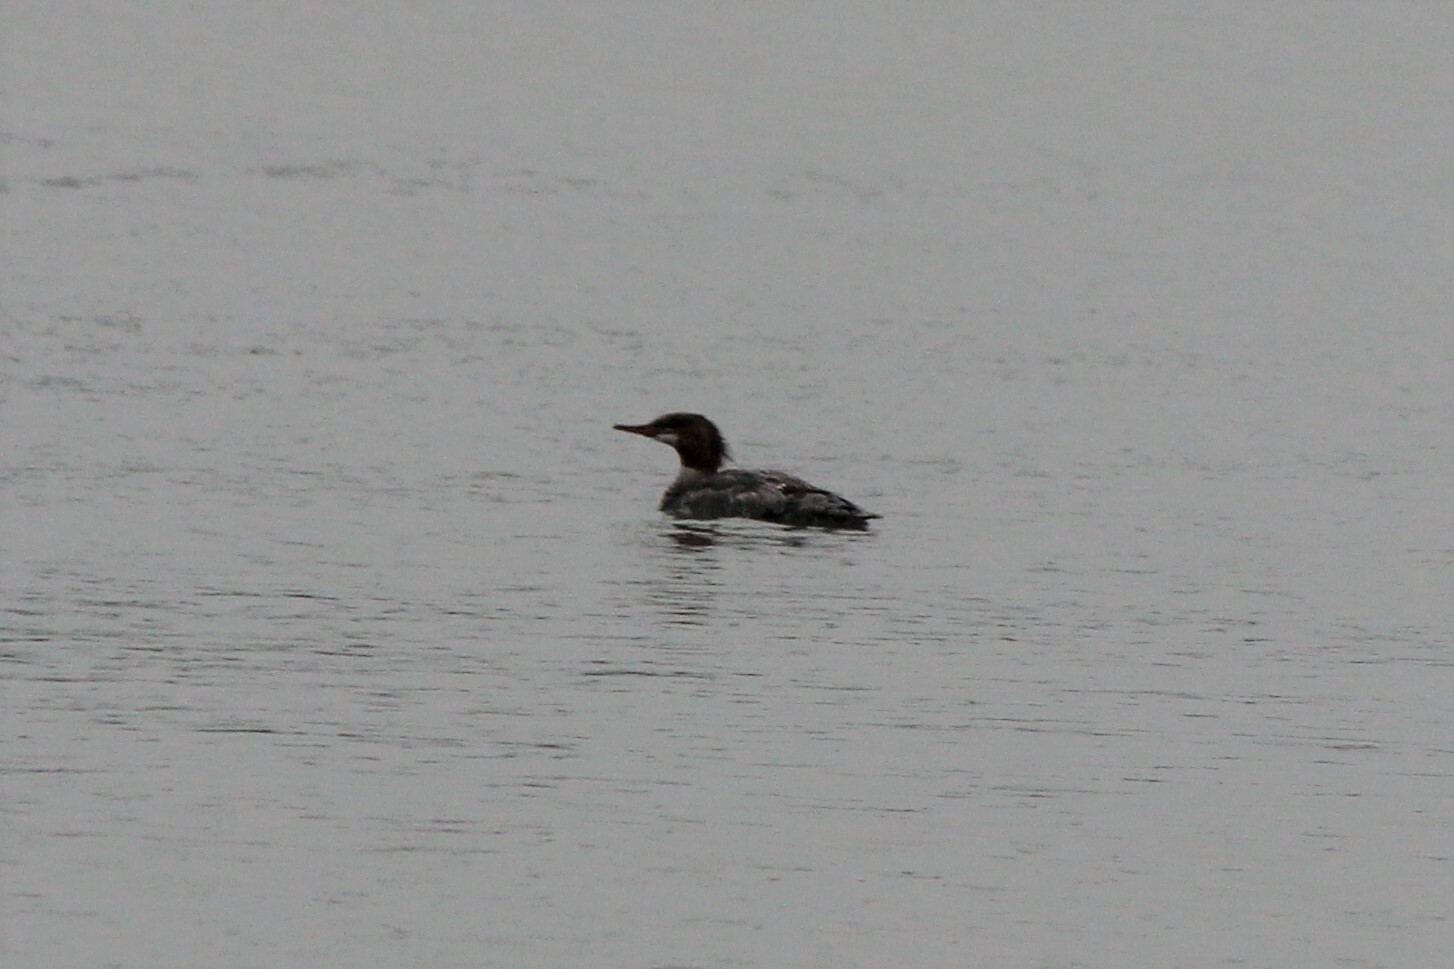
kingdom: Animalia
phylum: Chordata
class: Aves
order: Anseriformes
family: Anatidae
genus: Mergus
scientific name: Mergus merganser
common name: Common merganser
